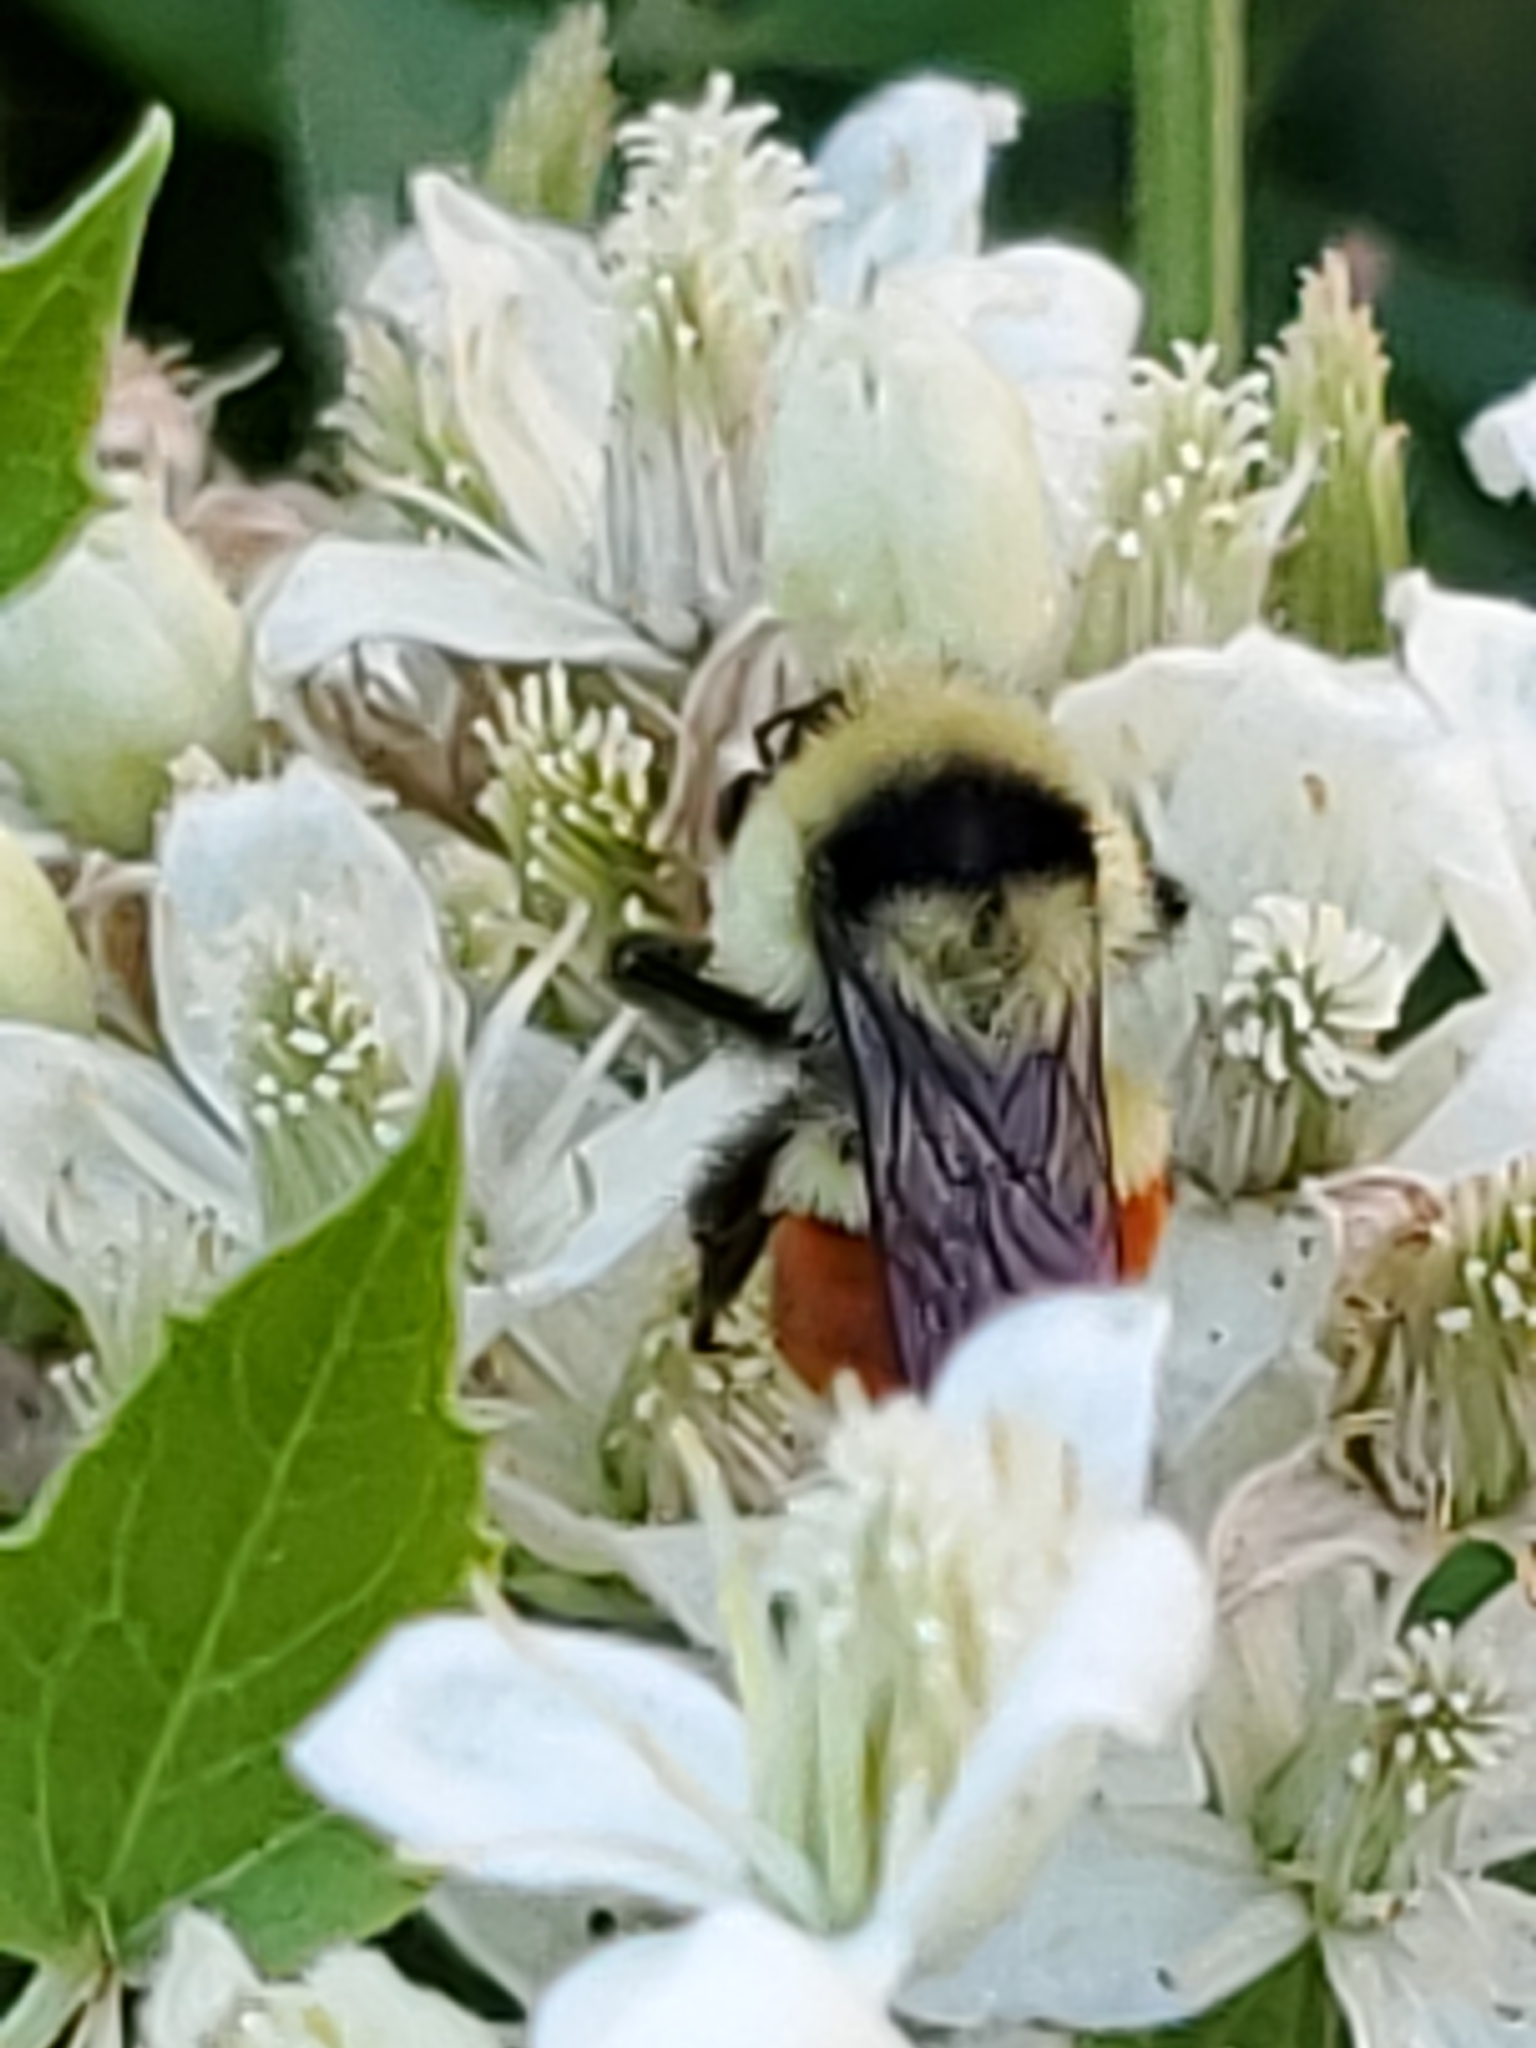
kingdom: Animalia
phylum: Arthropoda
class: Insecta
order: Hymenoptera
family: Apidae
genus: Bombus
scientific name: Bombus huntii
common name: Hunt bumble bee
